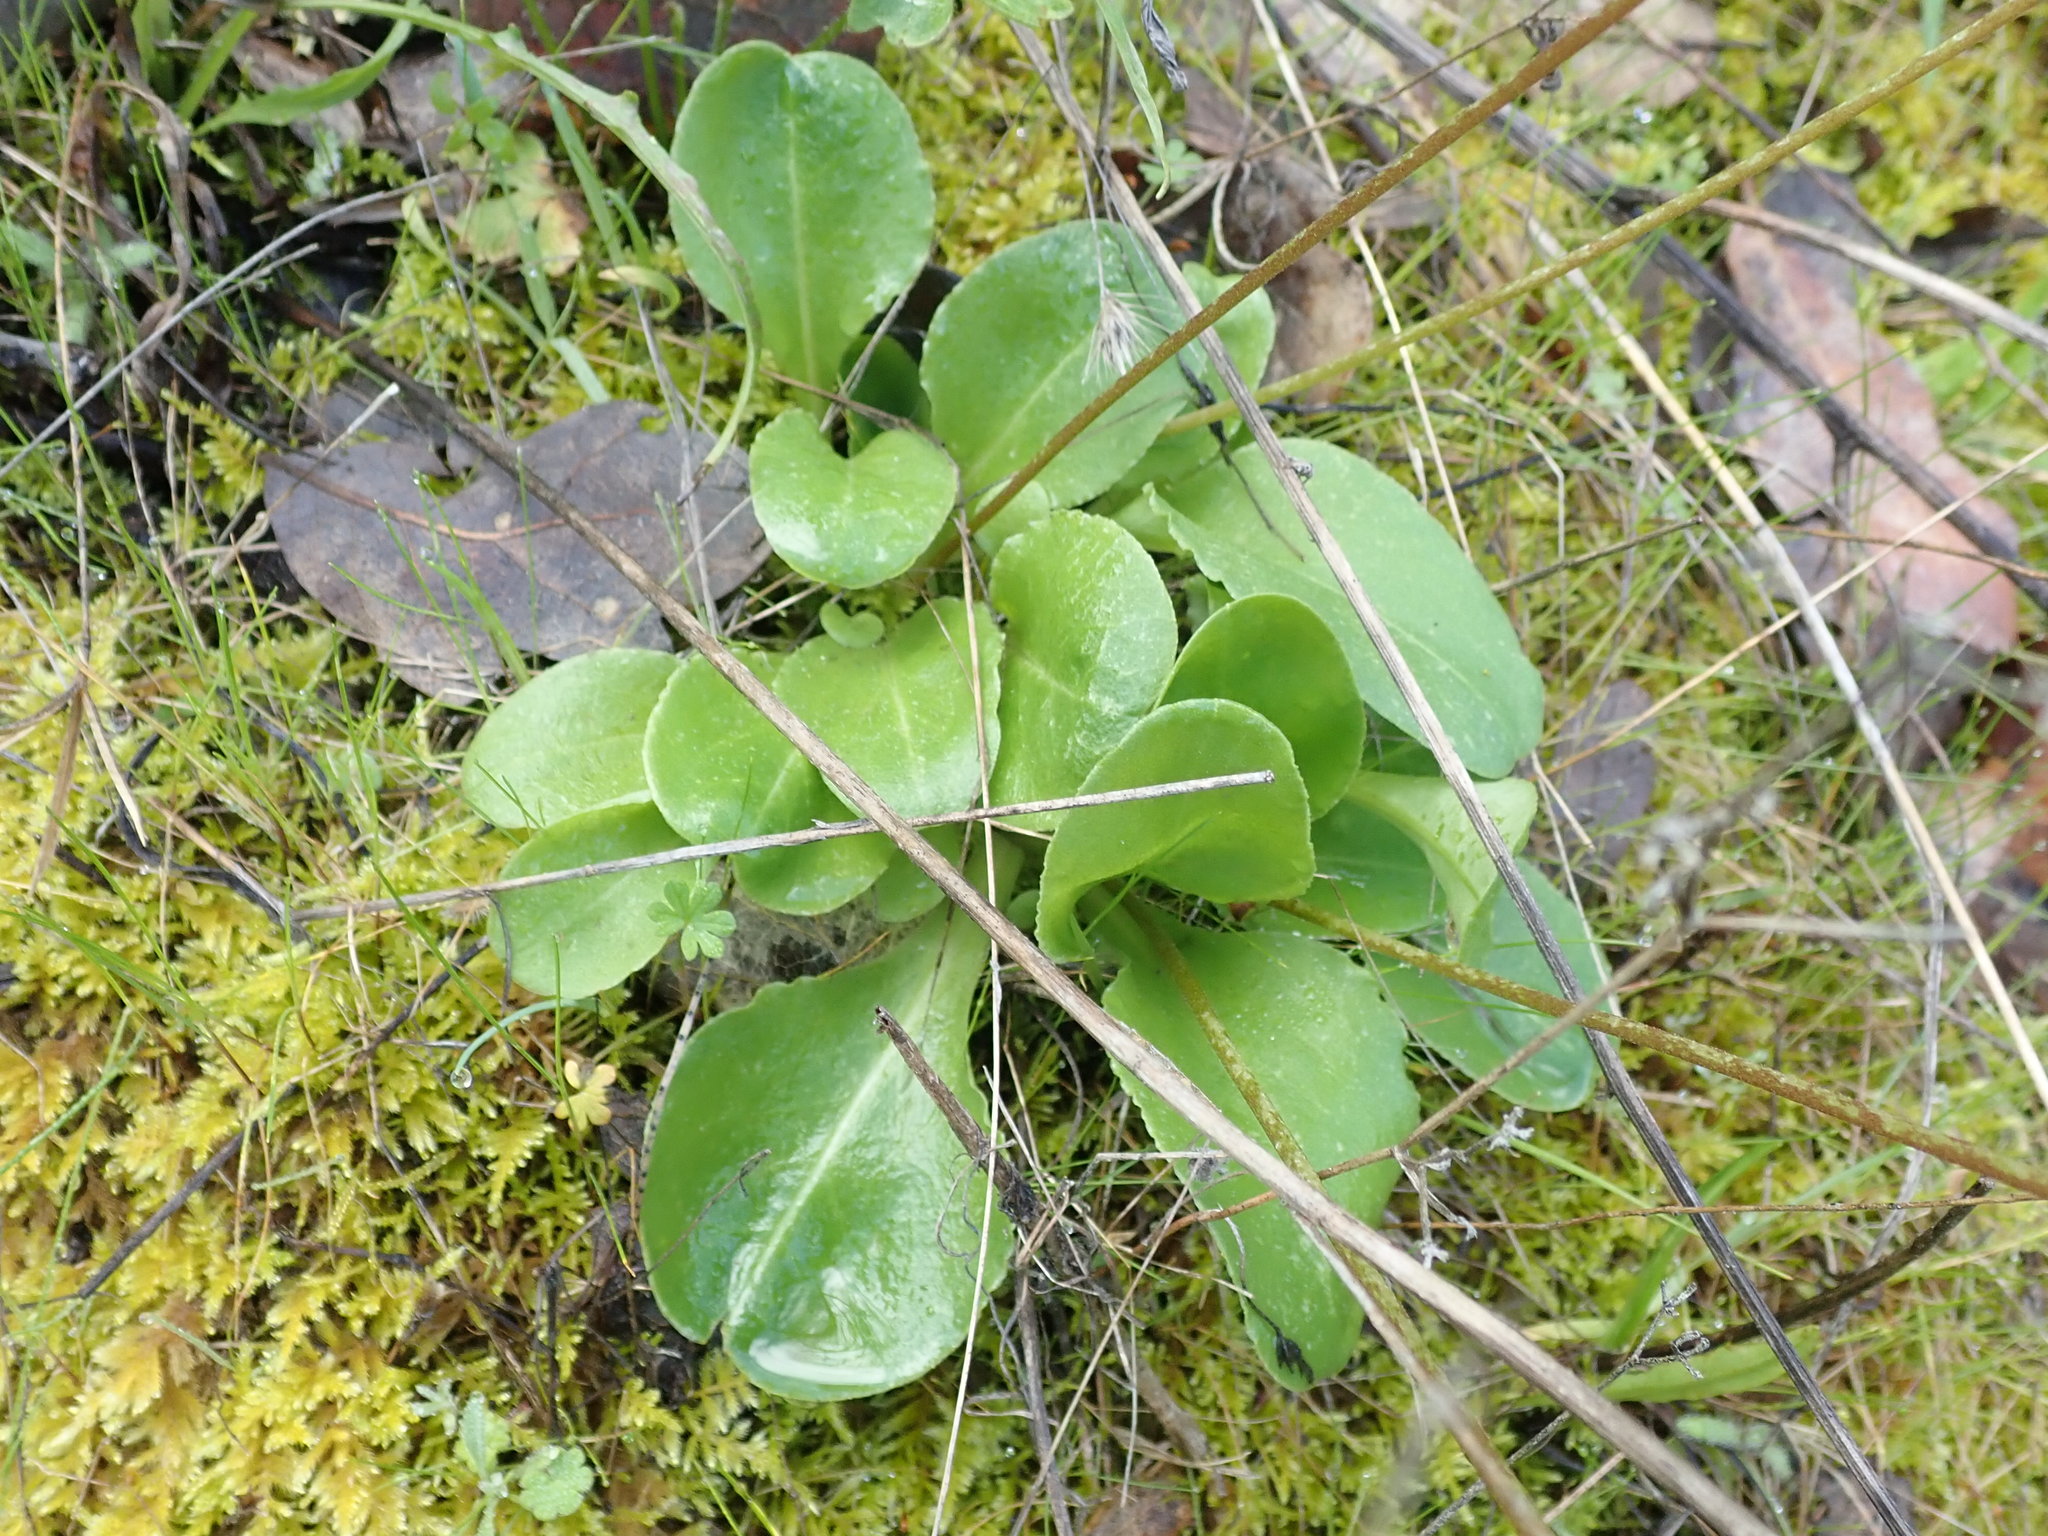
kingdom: Plantae
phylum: Tracheophyta
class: Magnoliopsida
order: Ericales
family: Primulaceae
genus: Dodecatheon
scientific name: Dodecatheon hendersonii
